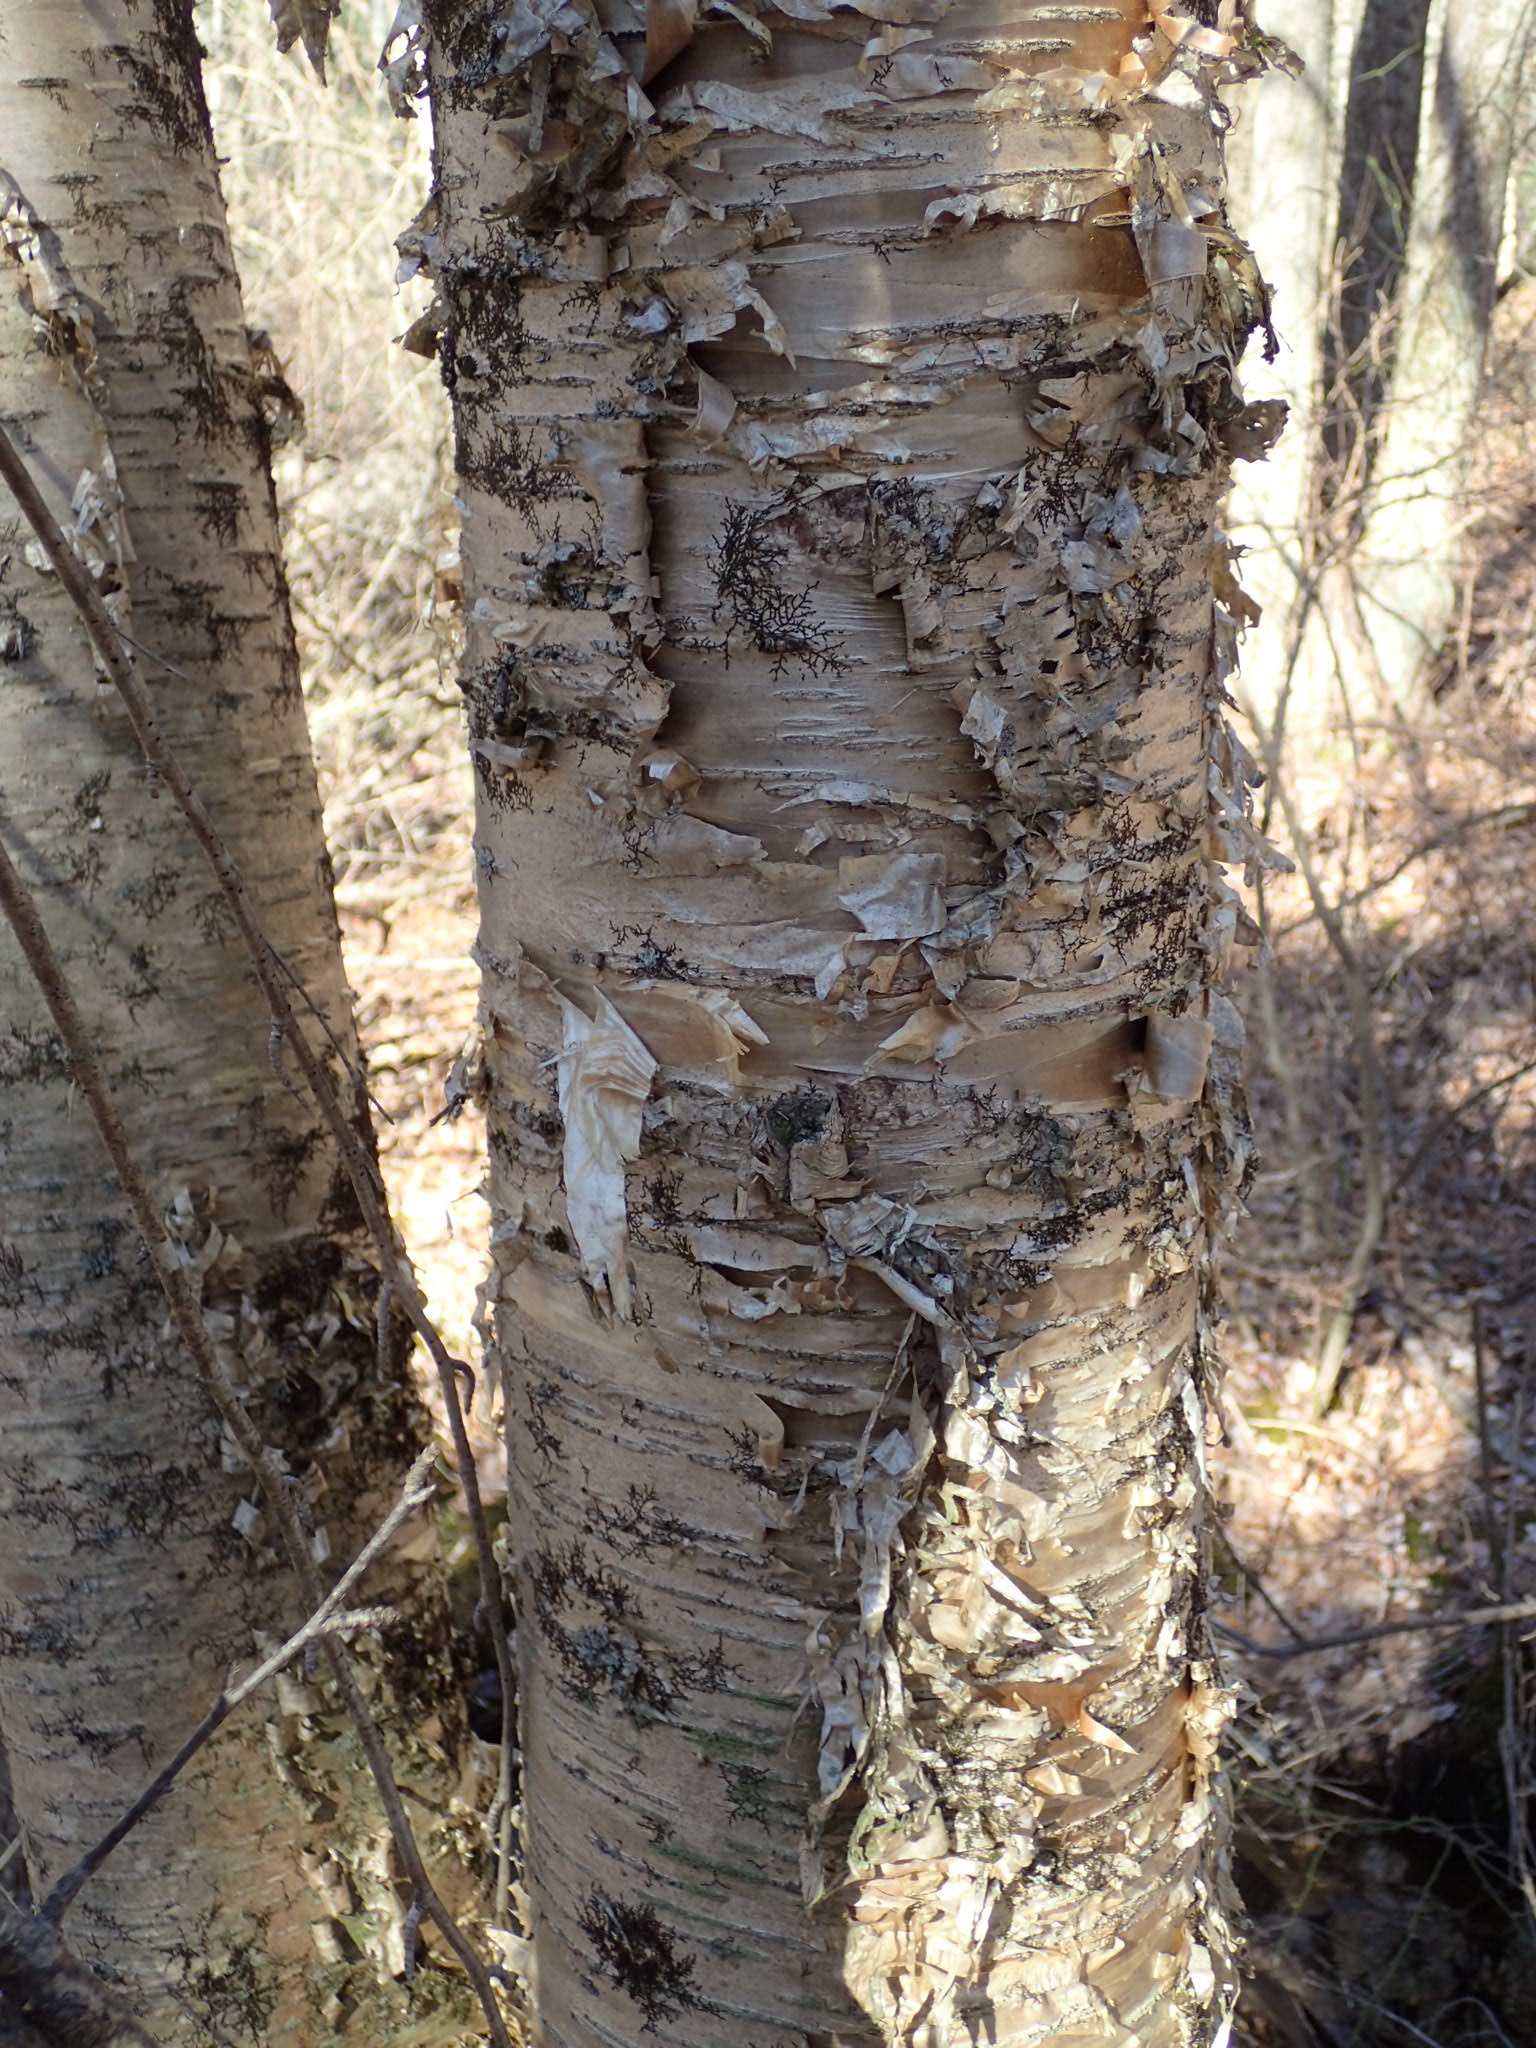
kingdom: Plantae
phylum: Tracheophyta
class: Magnoliopsida
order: Fagales
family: Betulaceae
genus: Betula
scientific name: Betula alleghaniensis
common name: Yellow birch
